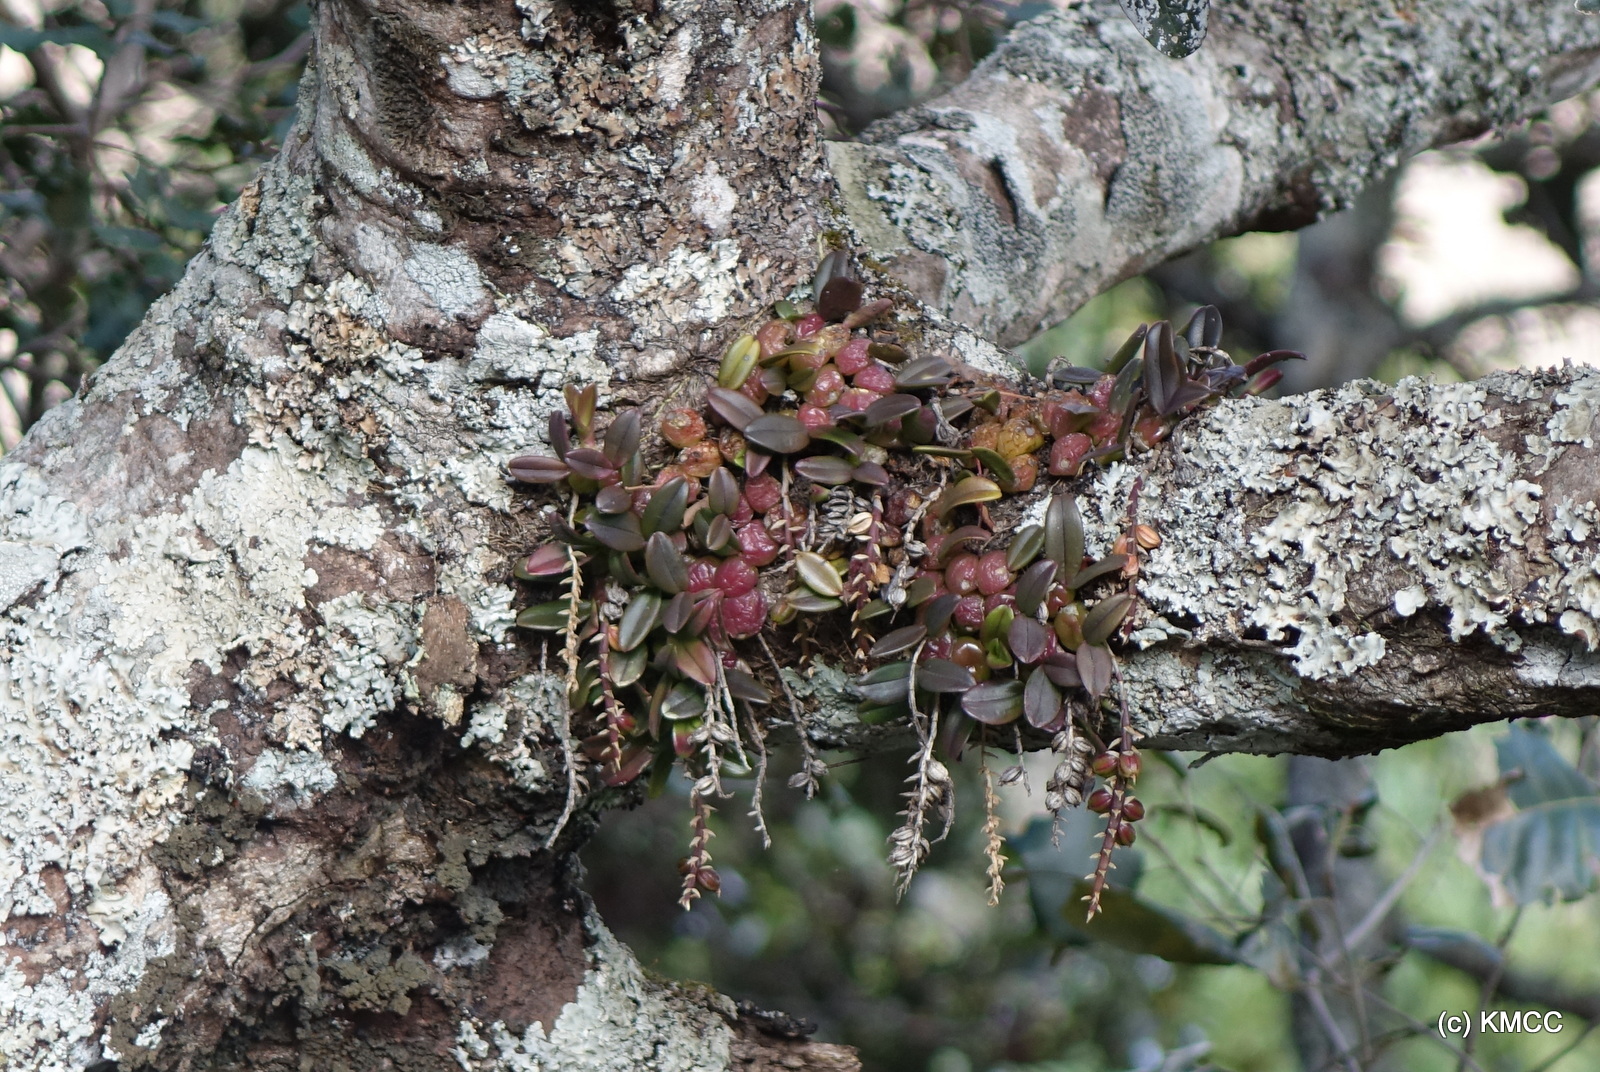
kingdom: Plantae
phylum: Tracheophyta
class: Liliopsida
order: Asparagales
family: Orchidaceae
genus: Bulbophyllum
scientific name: Bulbophyllum elliotii
